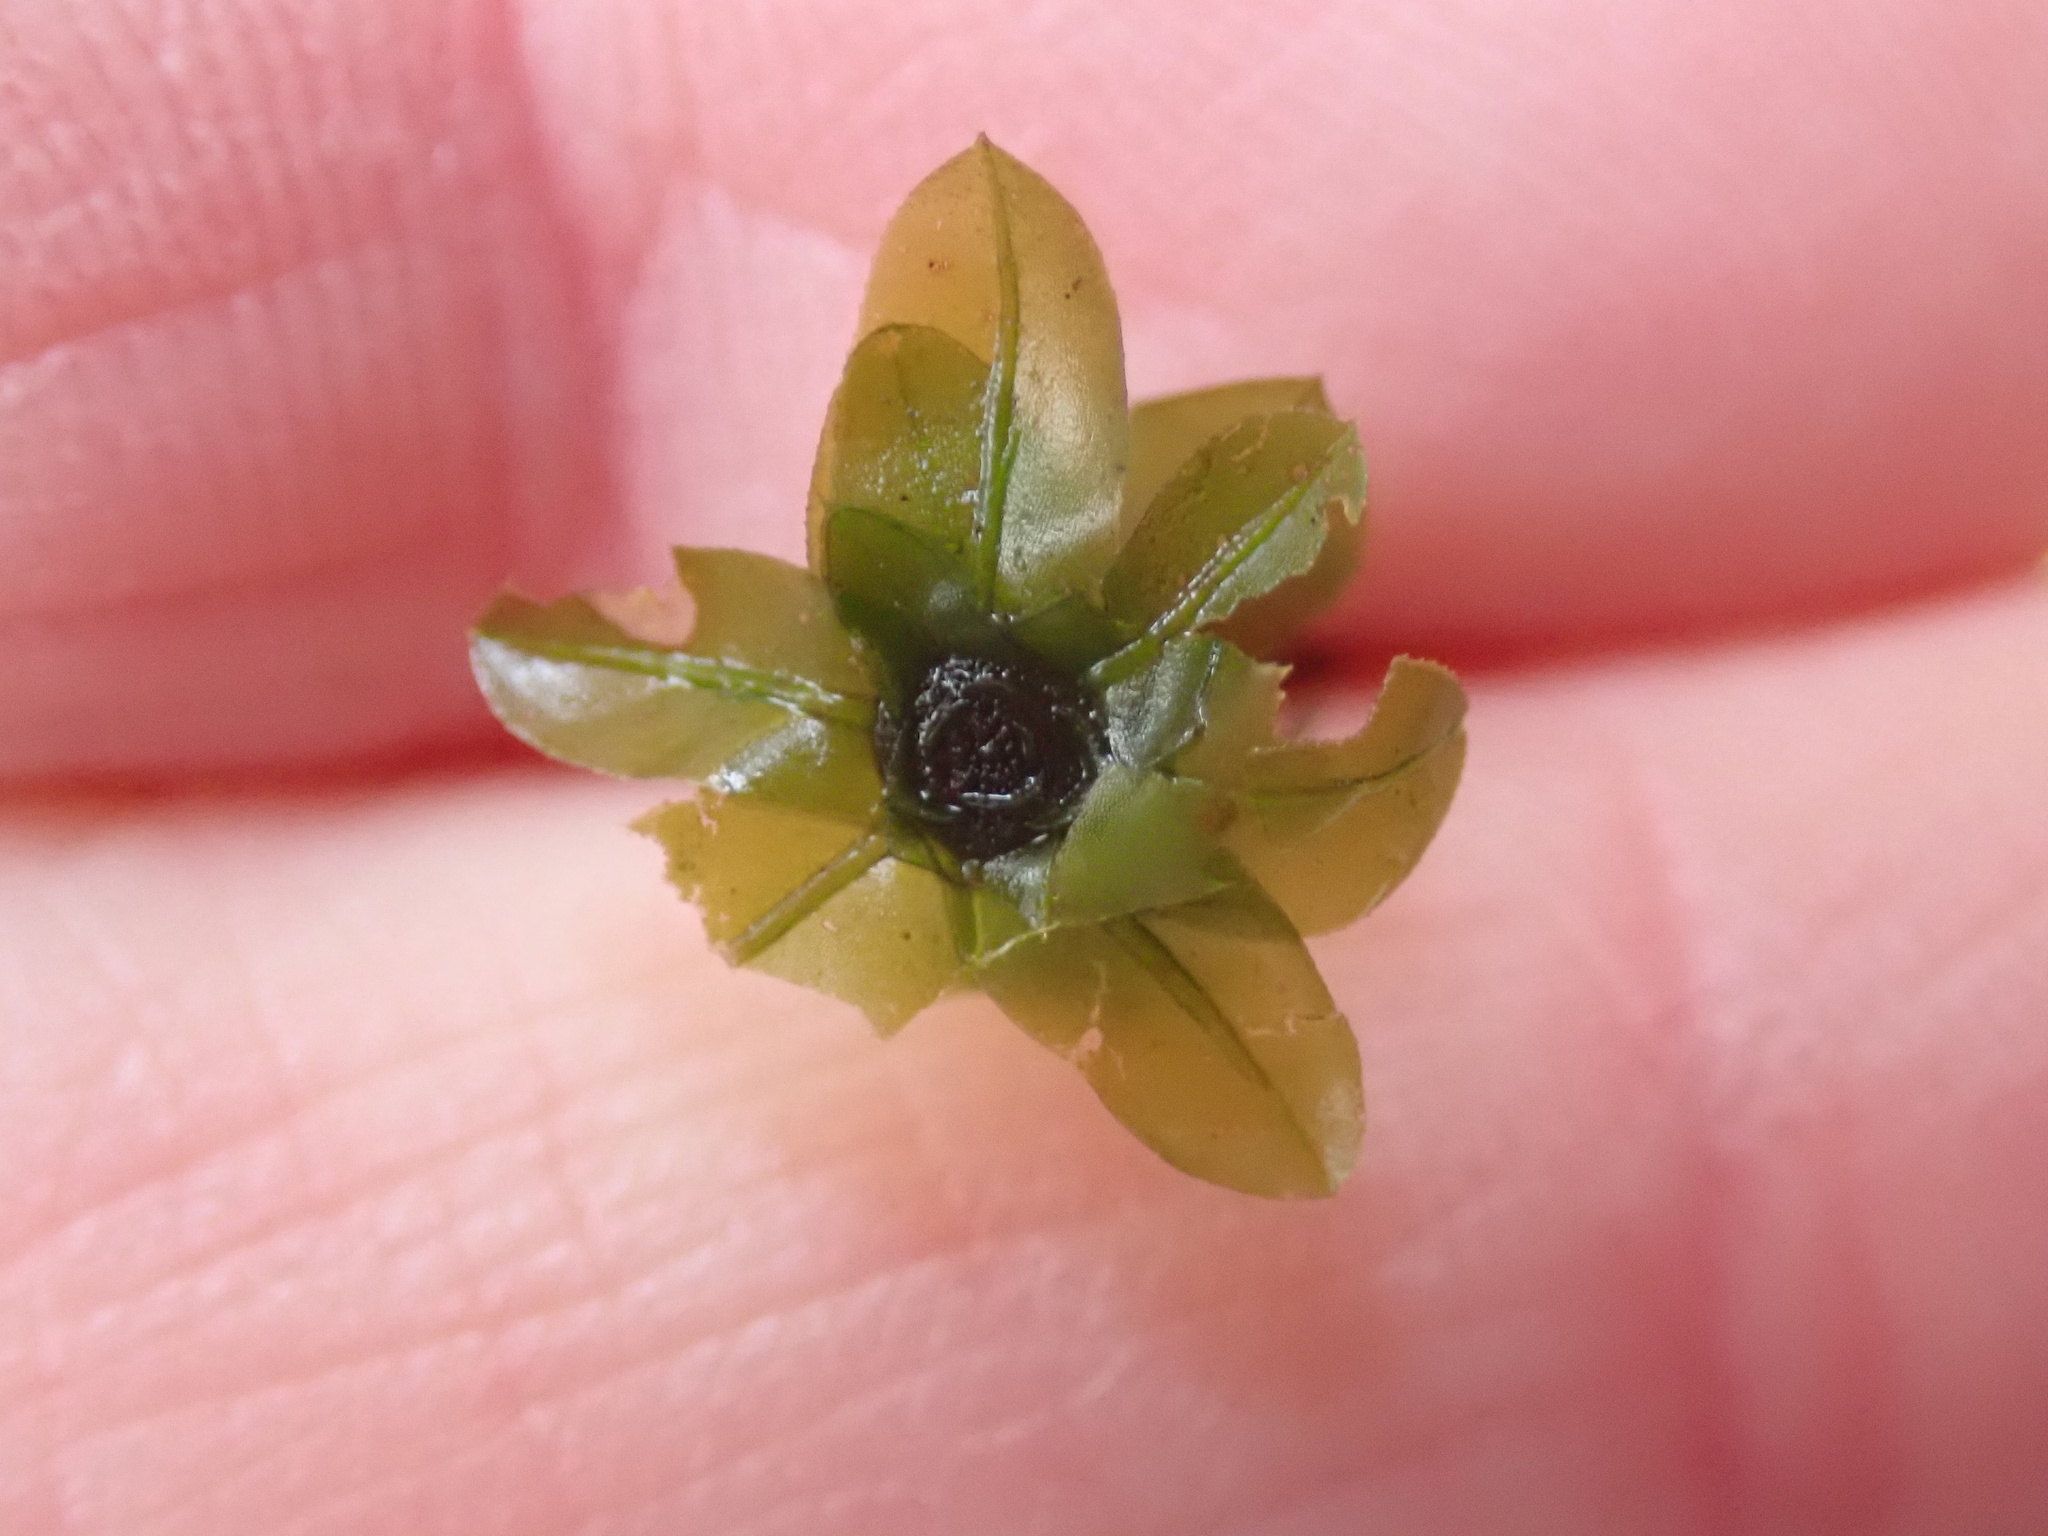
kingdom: Plantae
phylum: Bryophyta
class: Bryopsida
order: Bryales
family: Mniaceae
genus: Plagiomnium
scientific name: Plagiomnium insigne
